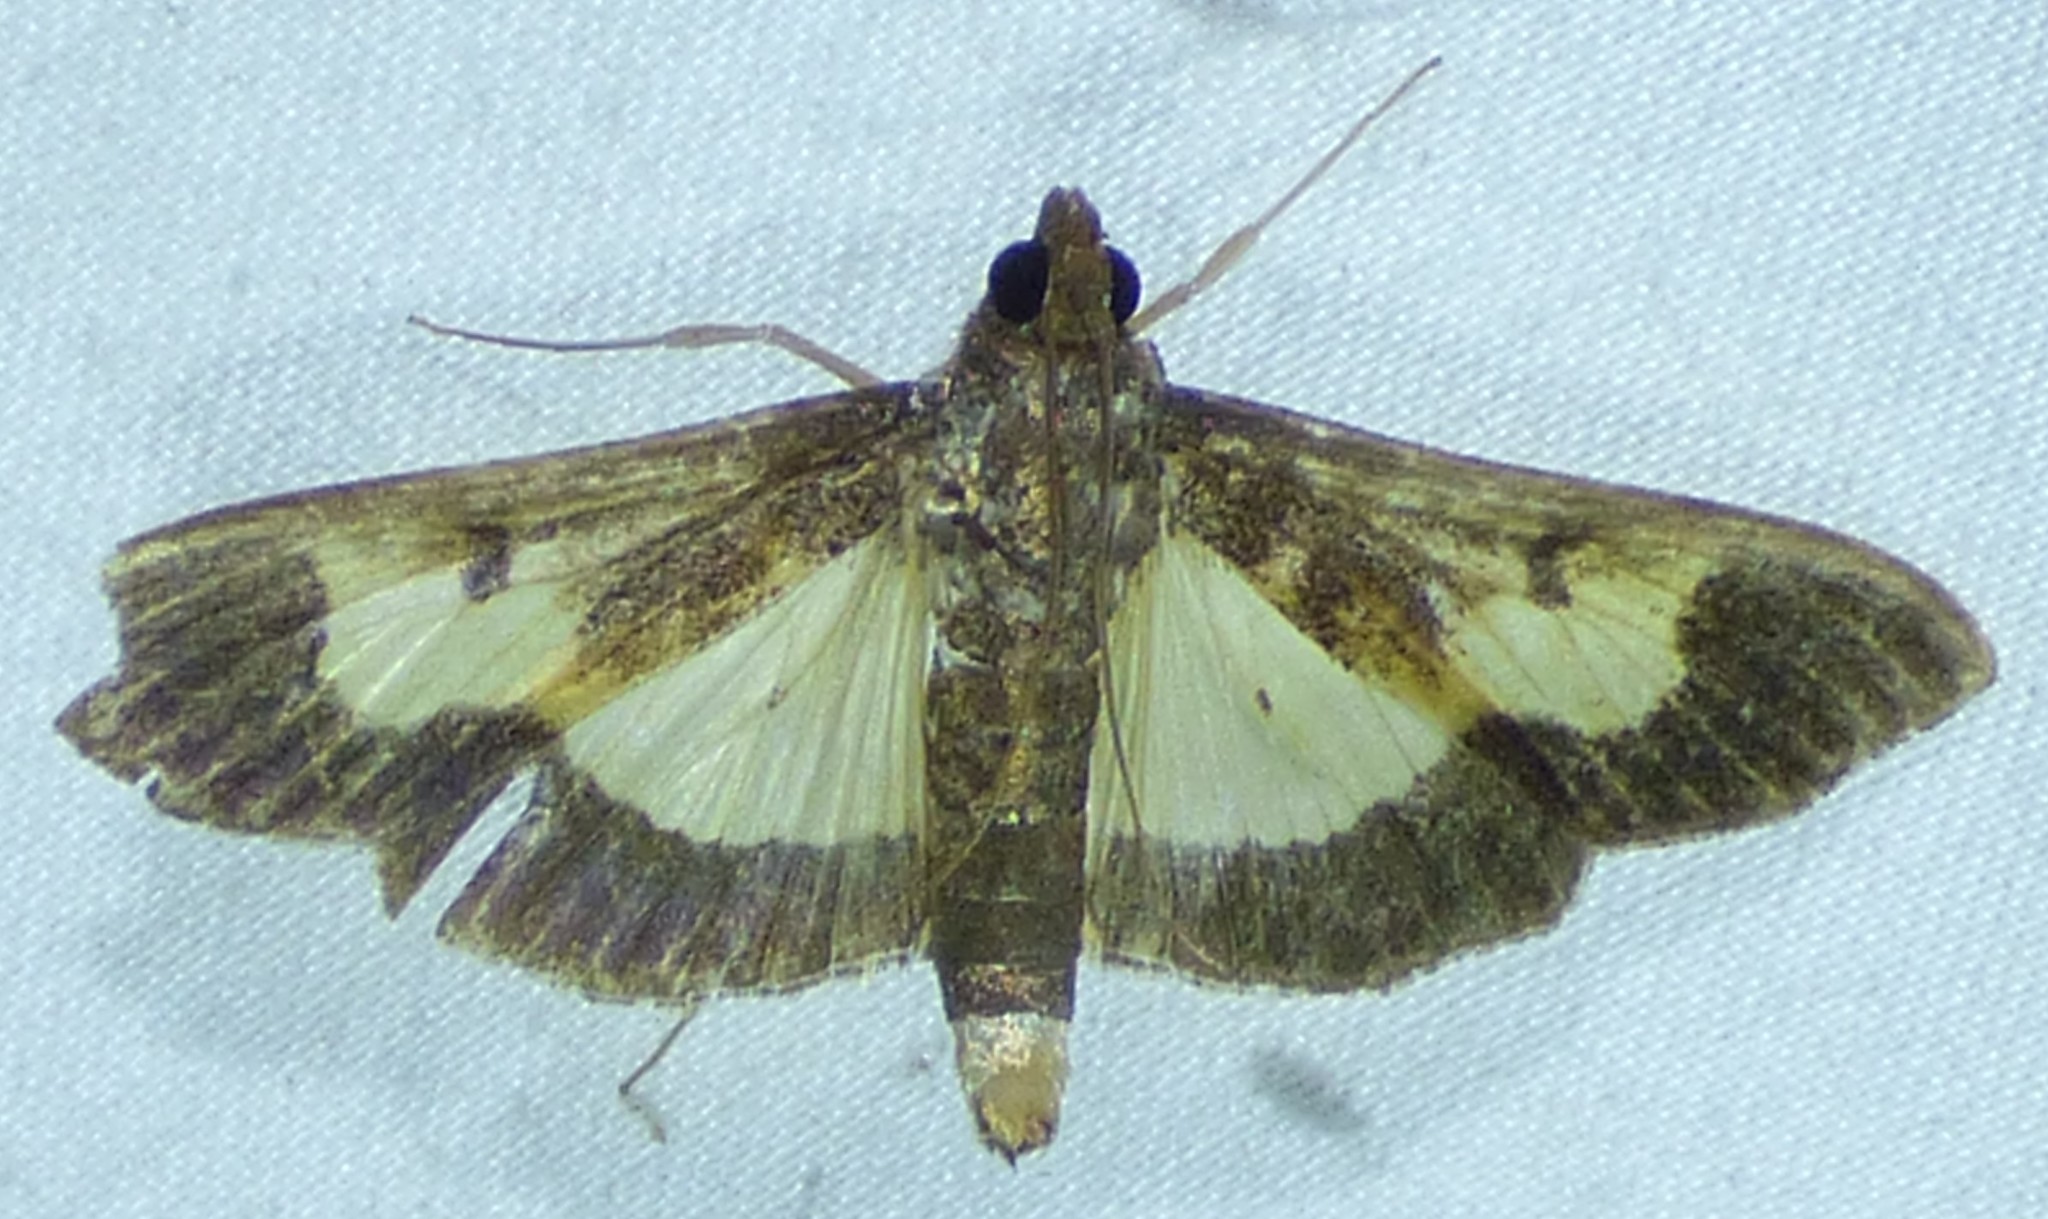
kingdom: Animalia
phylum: Arthropoda
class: Insecta
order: Lepidoptera
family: Crambidae
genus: Cryptographis
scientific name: Cryptographis nitidalis
